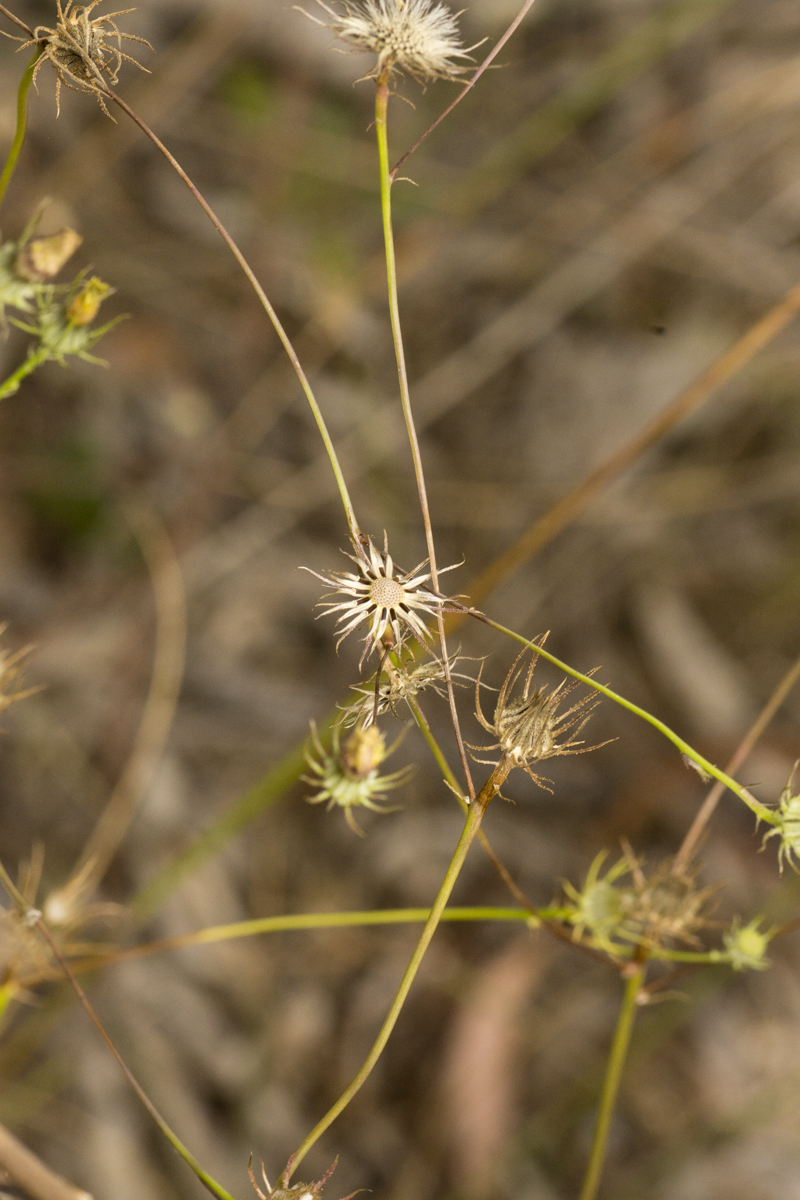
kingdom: Plantae
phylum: Tracheophyta
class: Magnoliopsida
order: Asterales
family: Asteraceae
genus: Tolpis
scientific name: Tolpis barbata
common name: Yellow hawkweed
